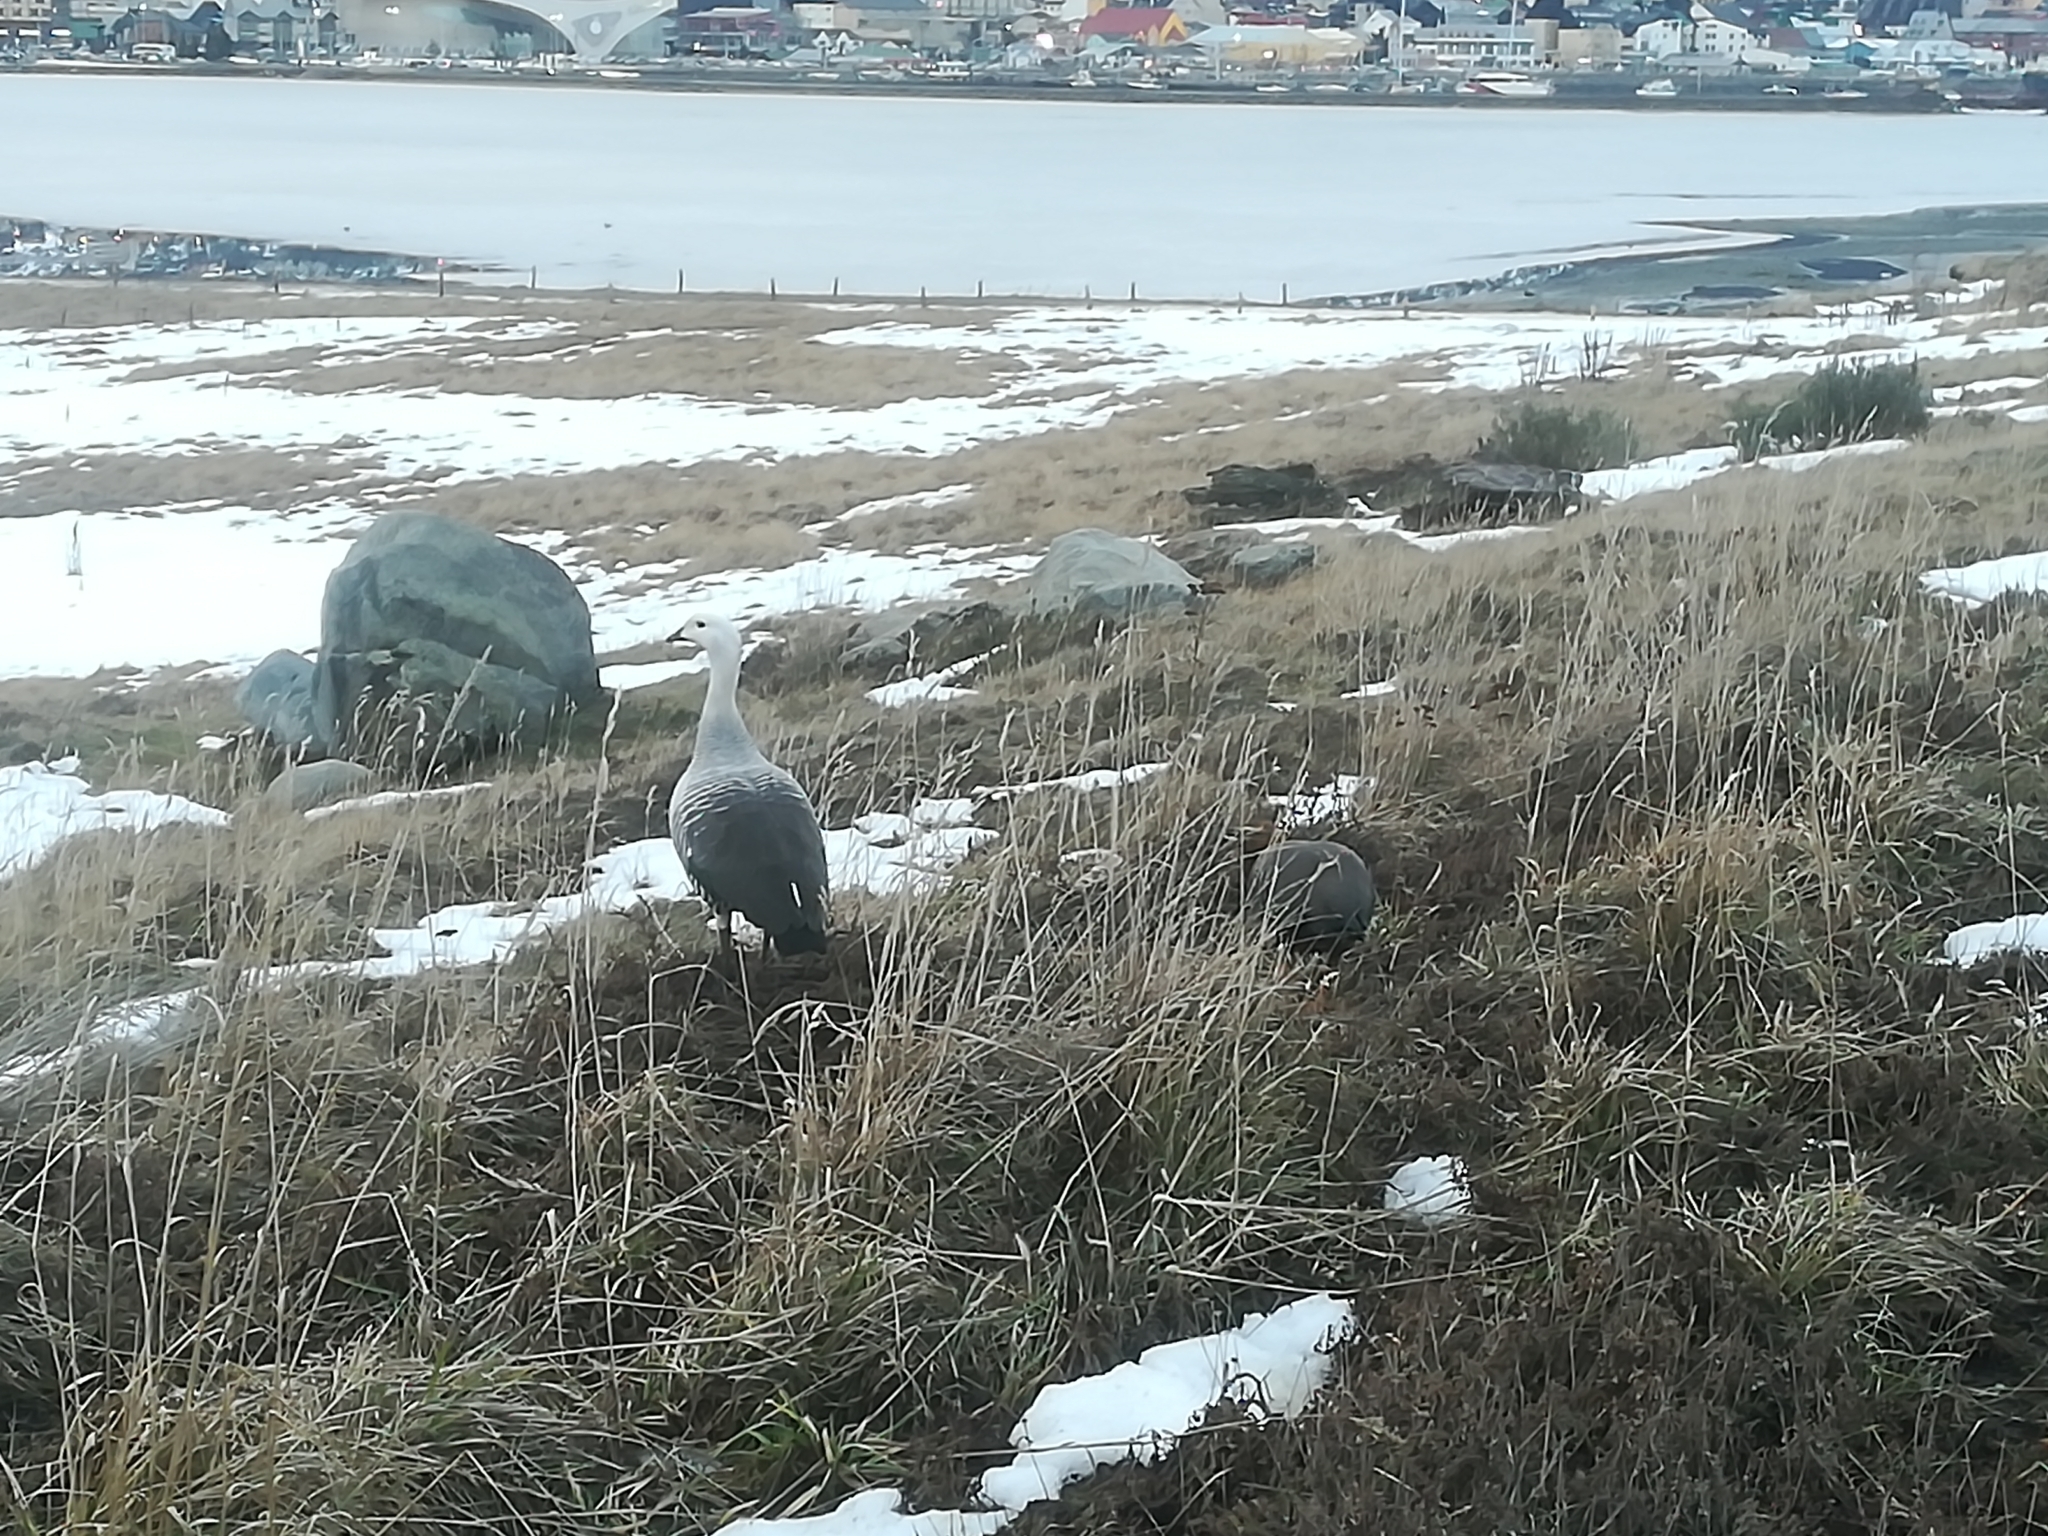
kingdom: Animalia
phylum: Chordata
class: Aves
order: Anseriformes
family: Anatidae
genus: Chloephaga
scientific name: Chloephaga picta
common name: Upland goose
